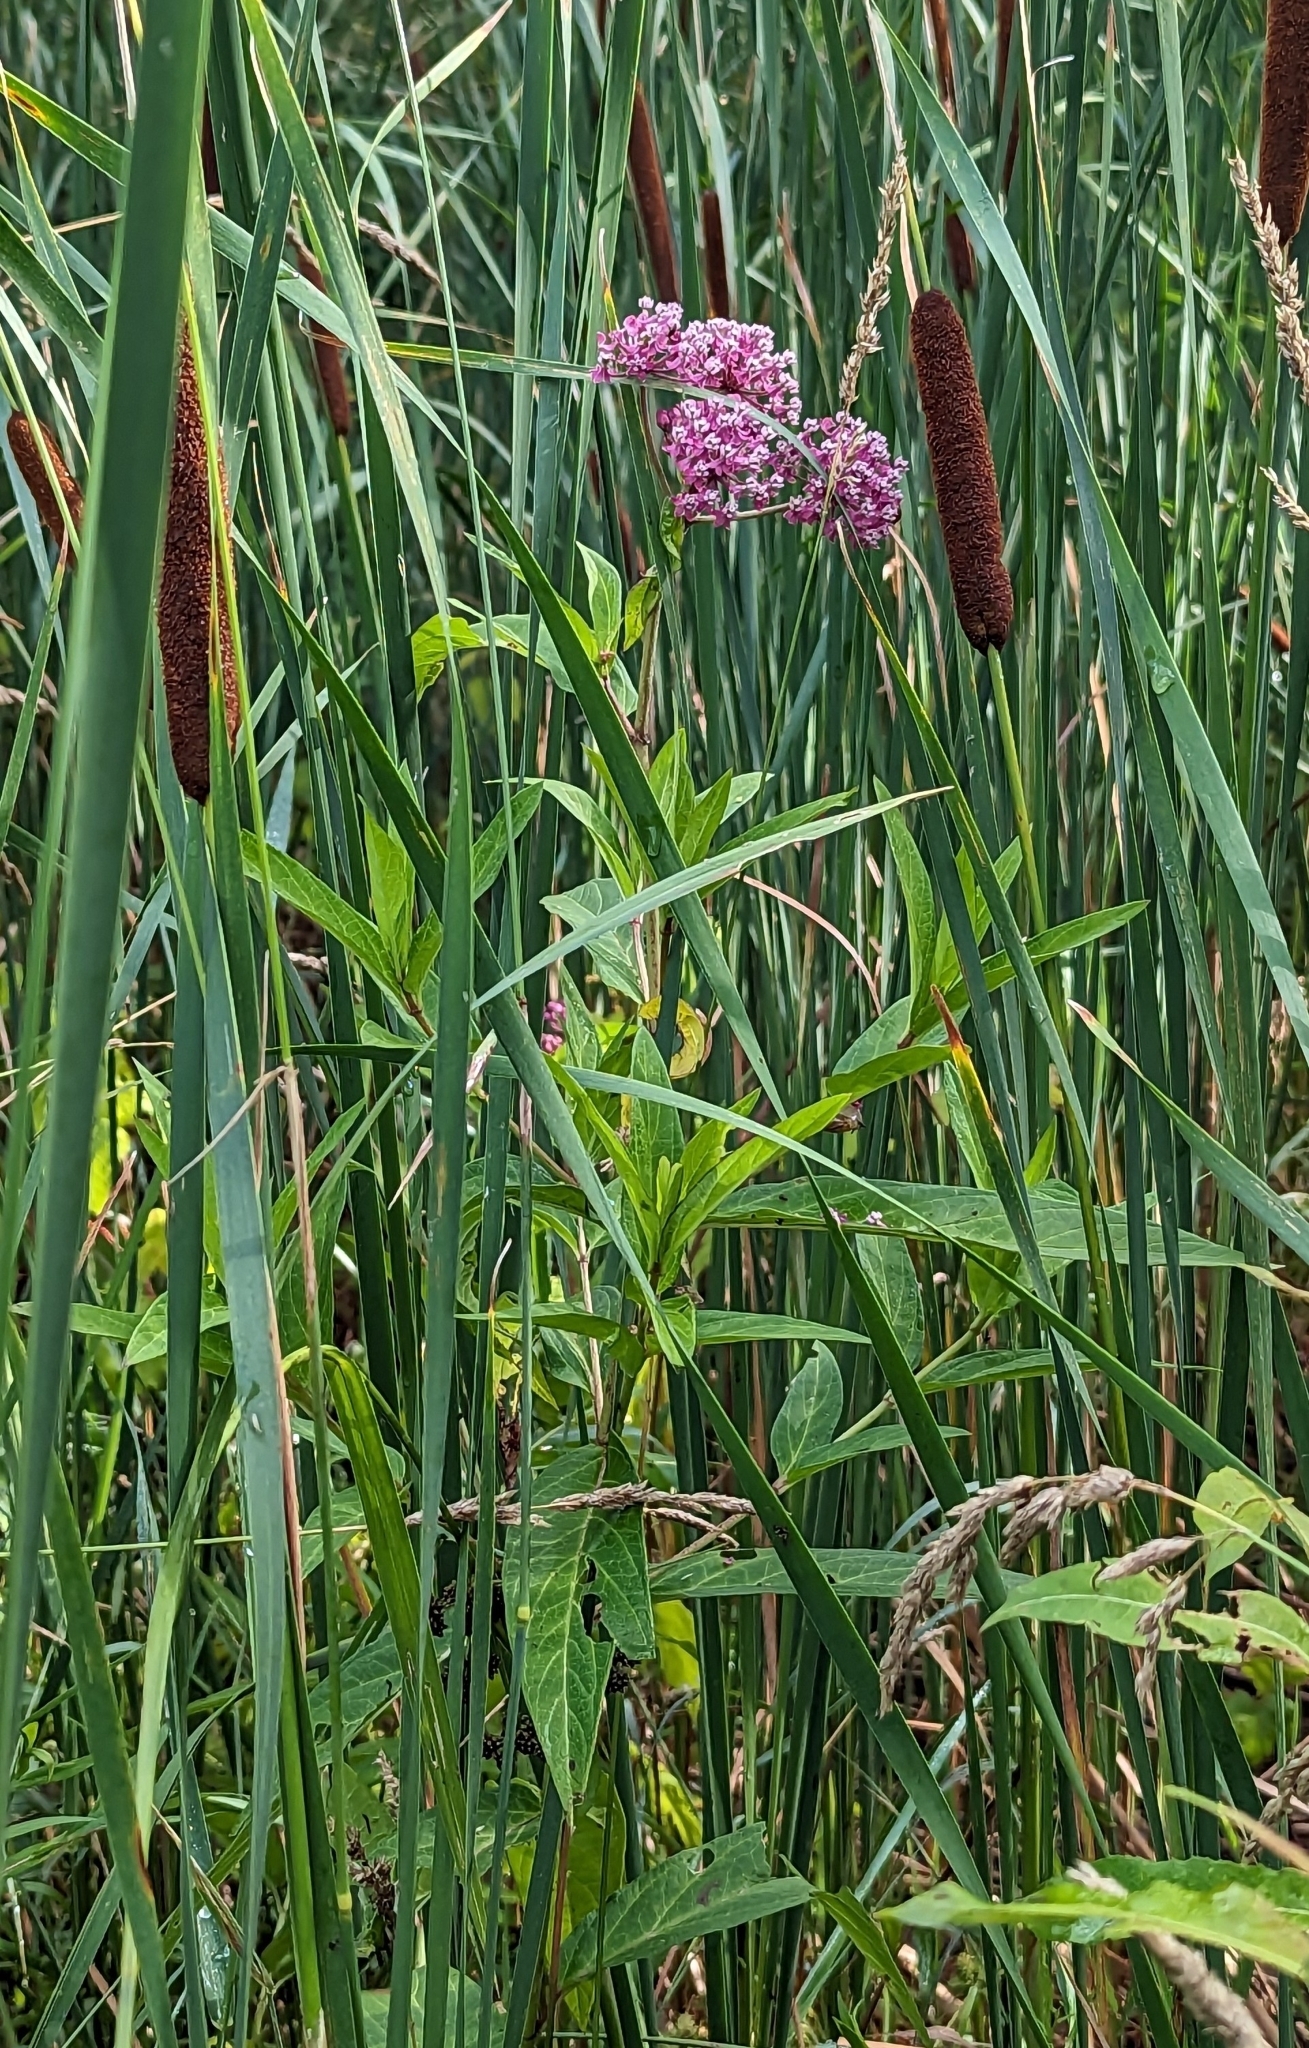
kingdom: Plantae
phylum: Tracheophyta
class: Magnoliopsida
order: Gentianales
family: Apocynaceae
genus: Asclepias
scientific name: Asclepias incarnata
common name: Swamp milkweed
